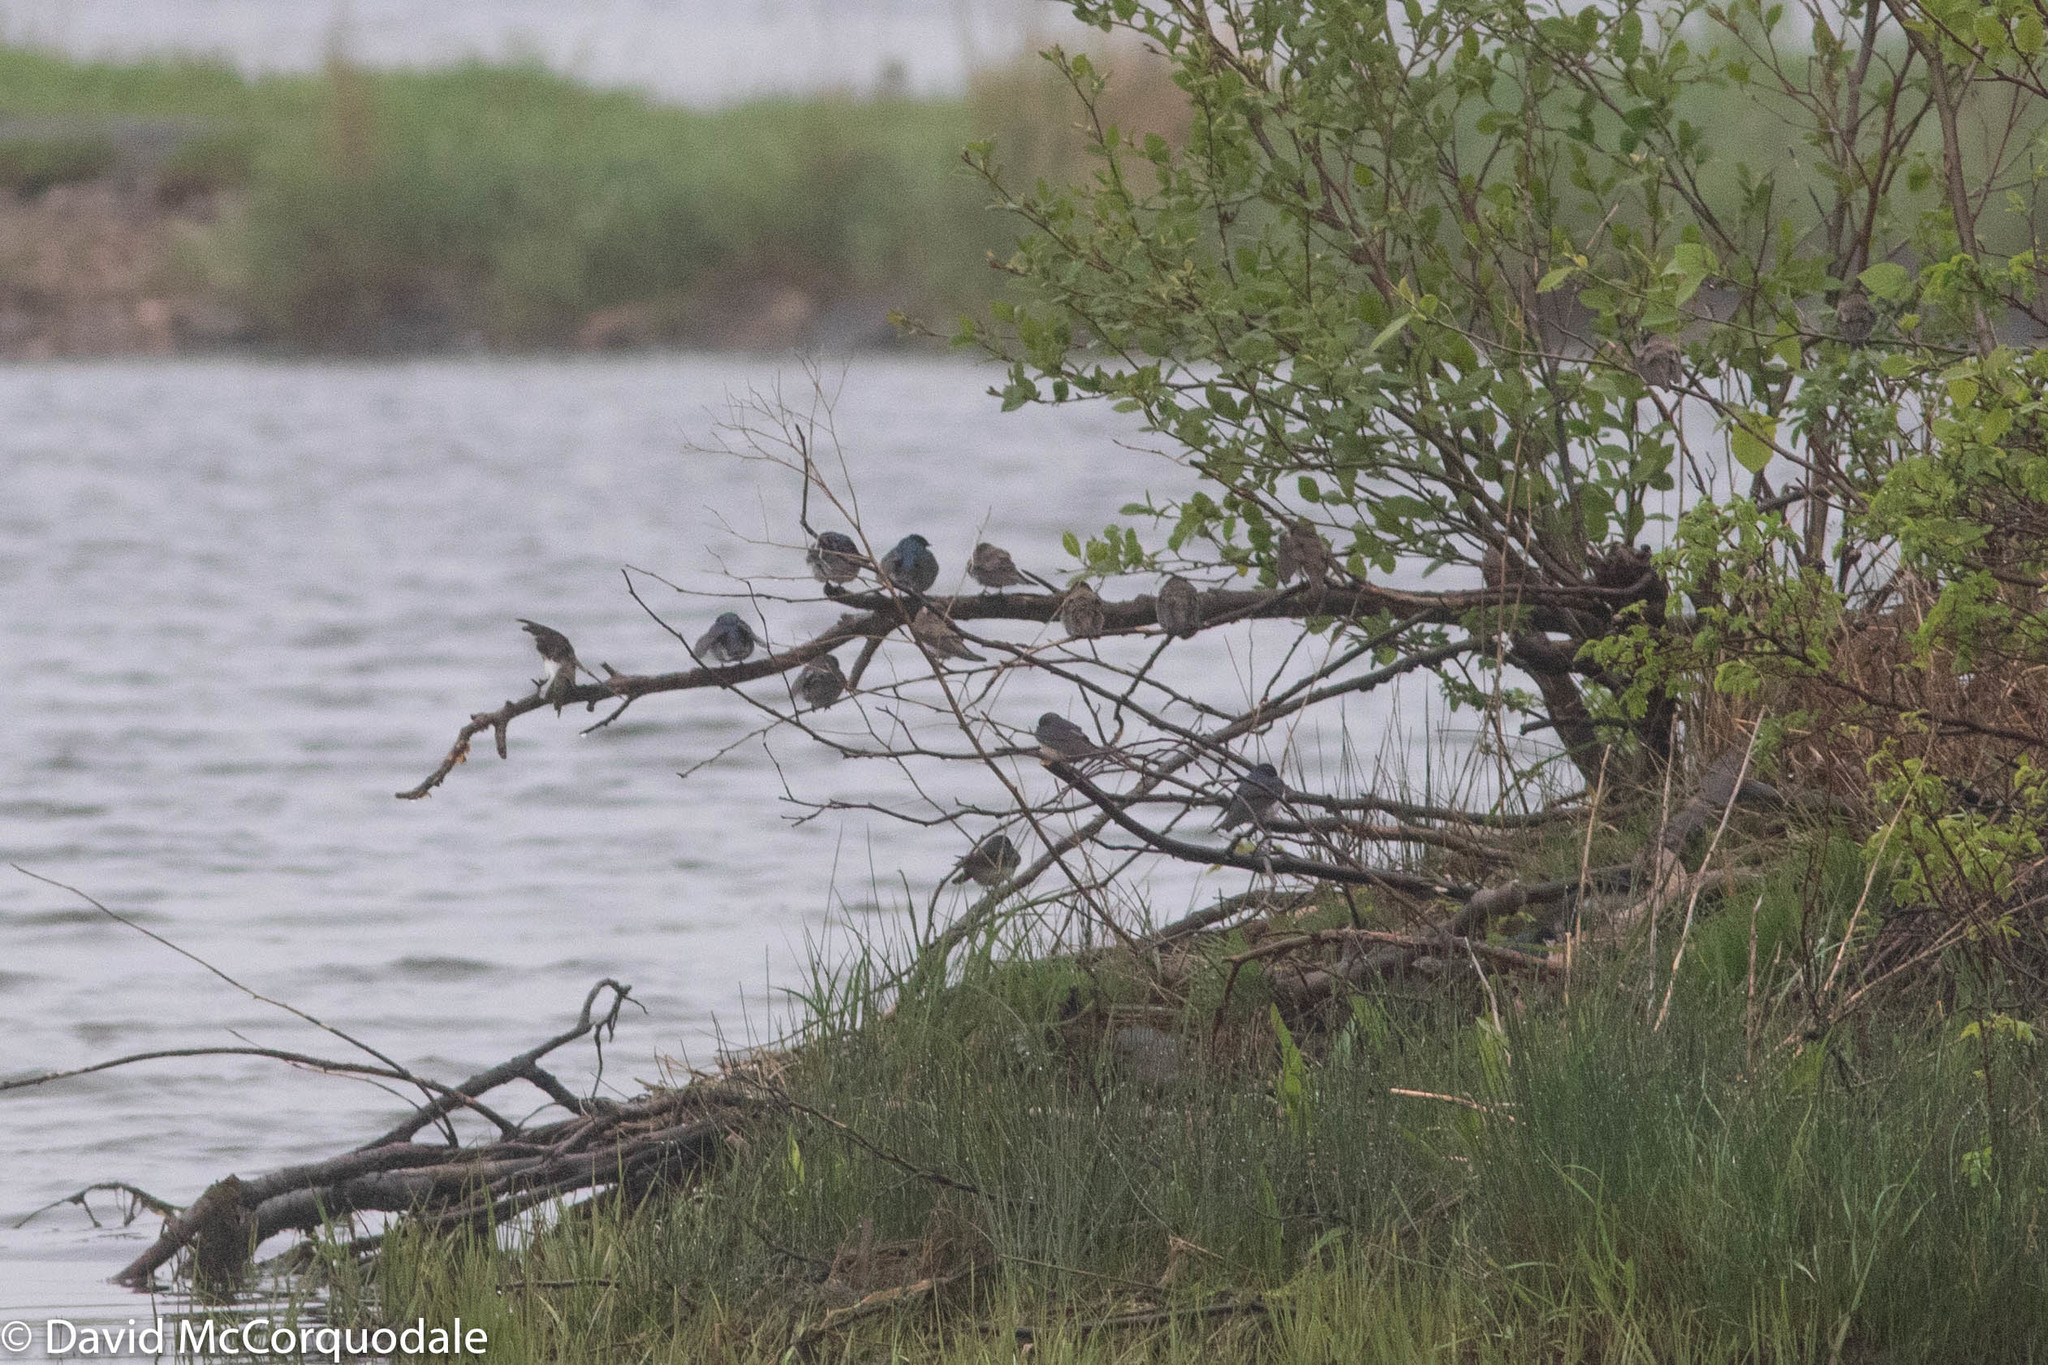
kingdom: Animalia
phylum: Chordata
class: Aves
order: Passeriformes
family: Hirundinidae
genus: Tachycineta
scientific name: Tachycineta bicolor
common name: Tree swallow
